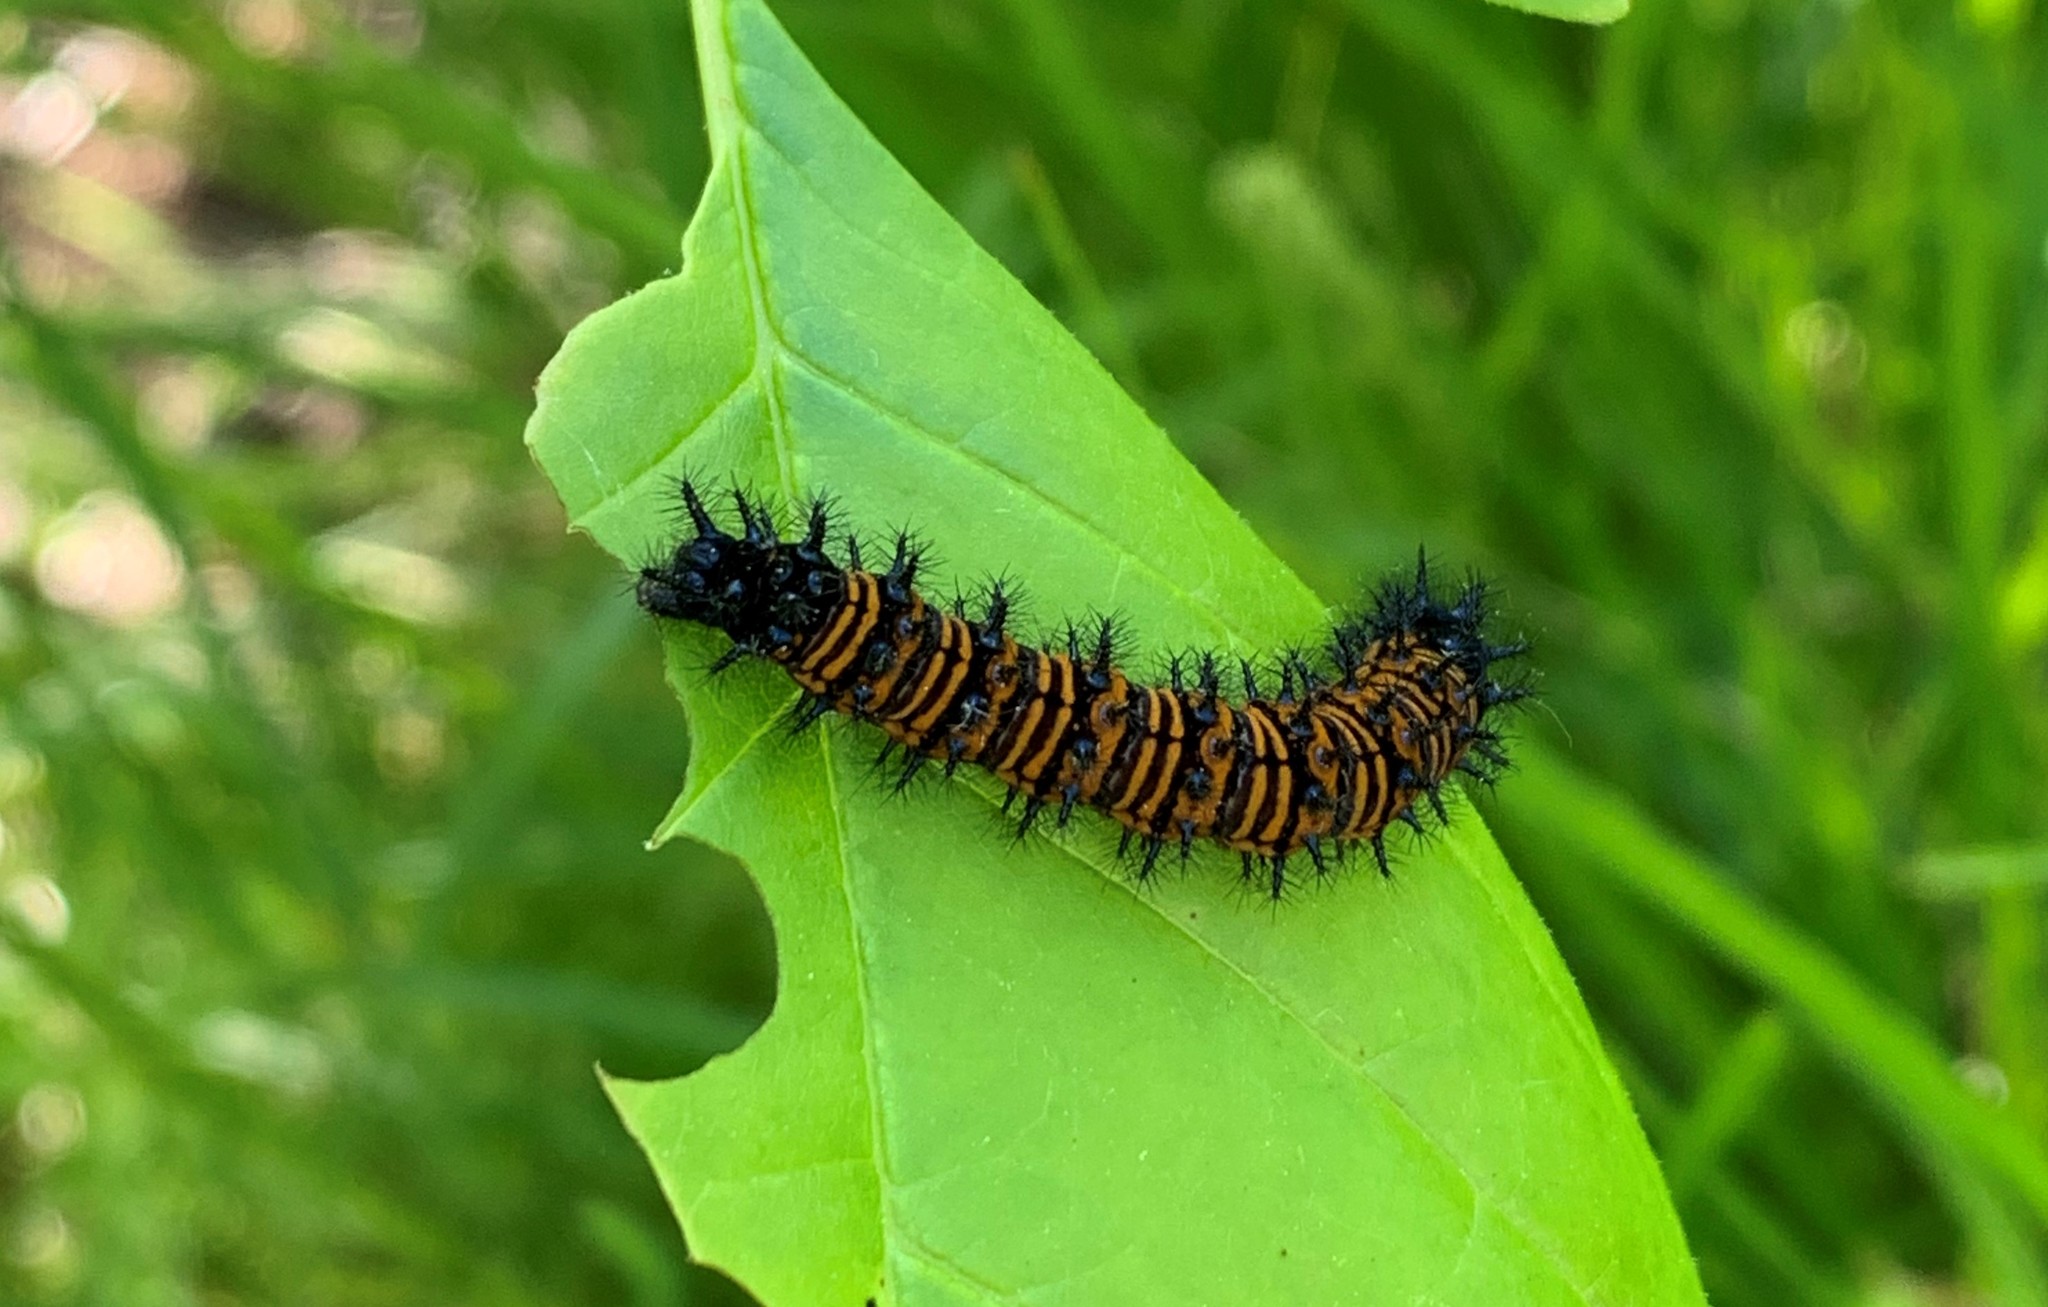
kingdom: Animalia
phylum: Arthropoda
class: Insecta
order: Lepidoptera
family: Nymphalidae
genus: Euphydryas
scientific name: Euphydryas phaeton
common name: Baltimore checkerspot
